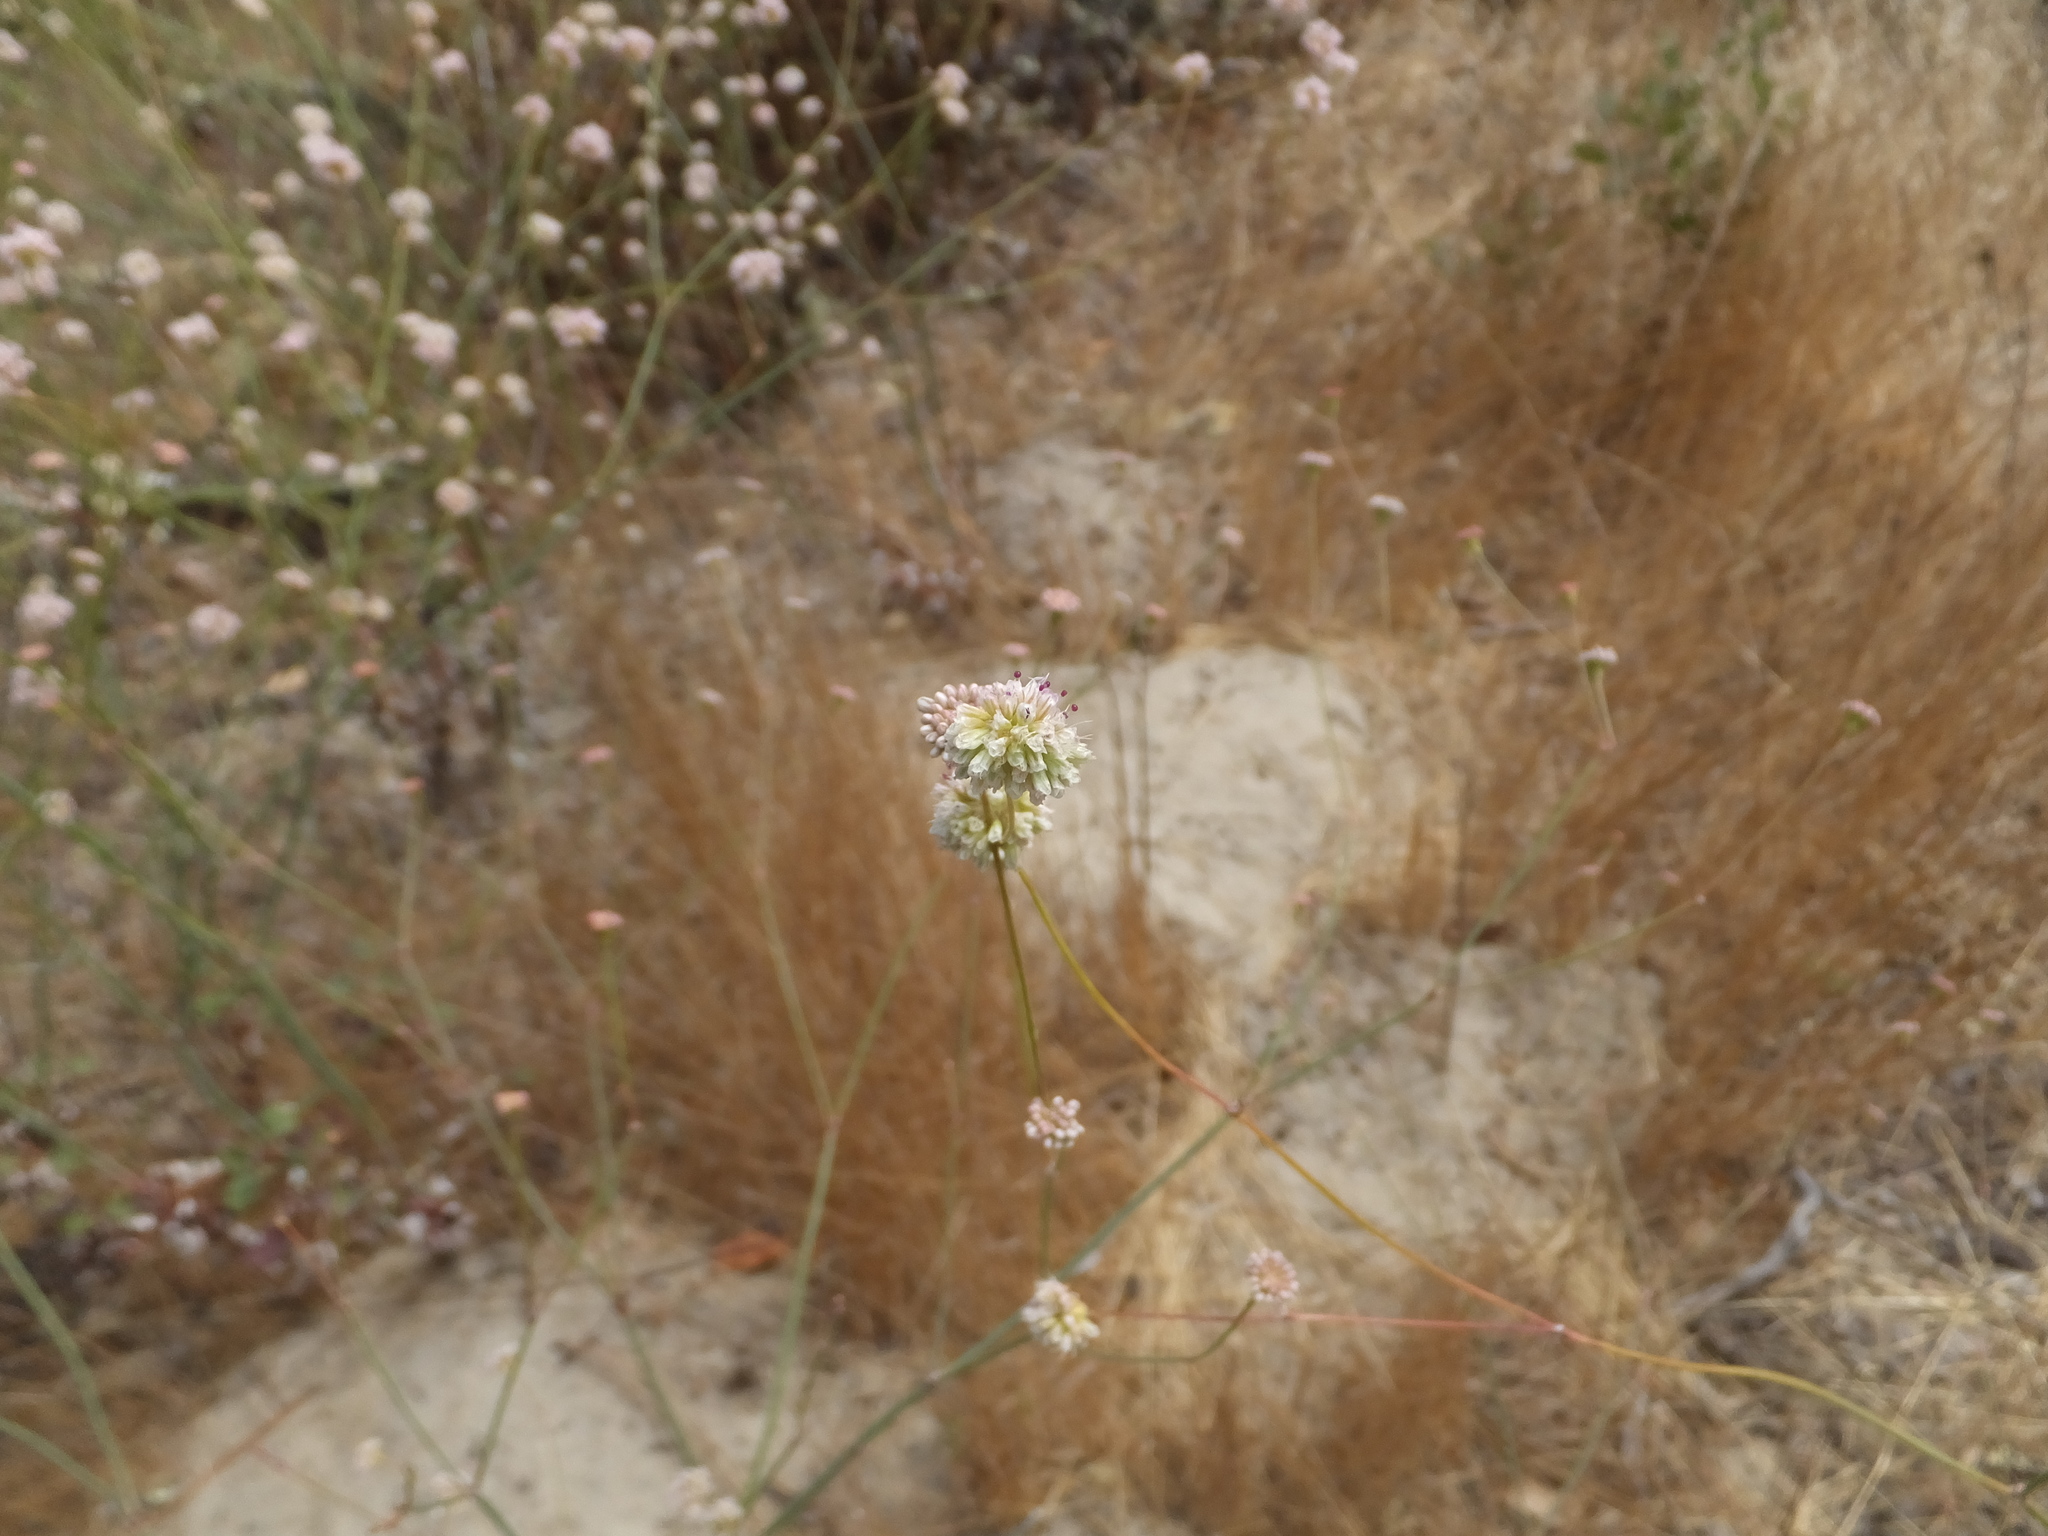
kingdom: Plantae
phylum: Tracheophyta
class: Magnoliopsida
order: Caryophyllales
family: Polygonaceae
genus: Eriogonum
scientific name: Eriogonum nudum
